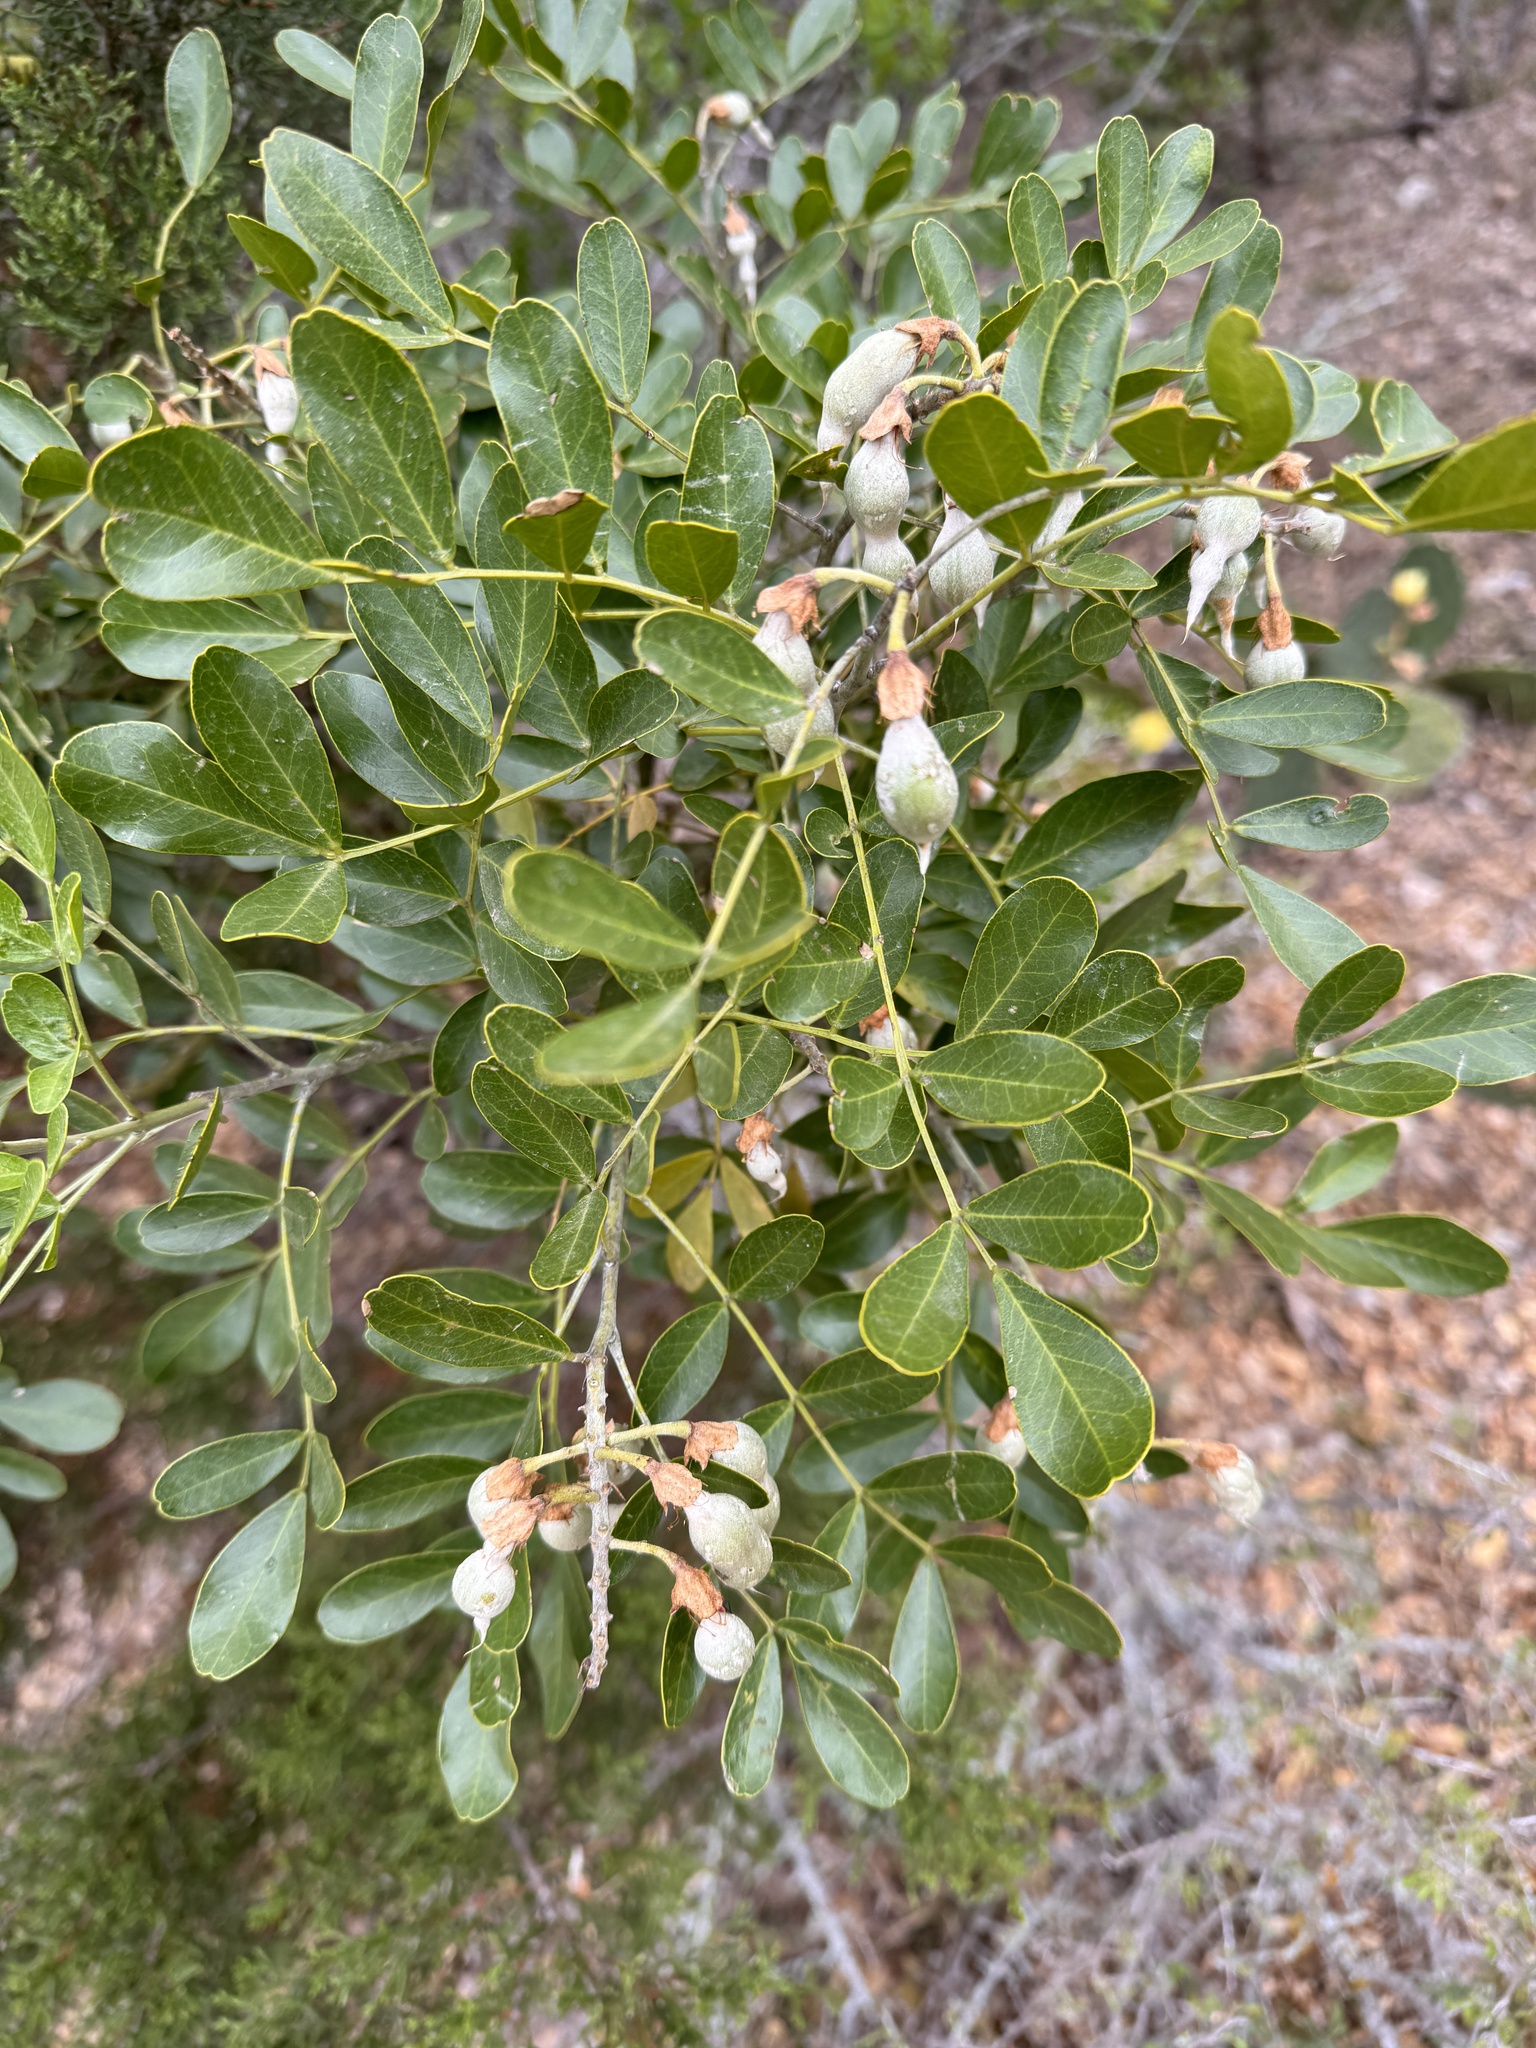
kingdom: Plantae
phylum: Tracheophyta
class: Magnoliopsida
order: Fabales
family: Fabaceae
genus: Dermatophyllum
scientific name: Dermatophyllum secundiflorum
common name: Texas-mountain-laurel
